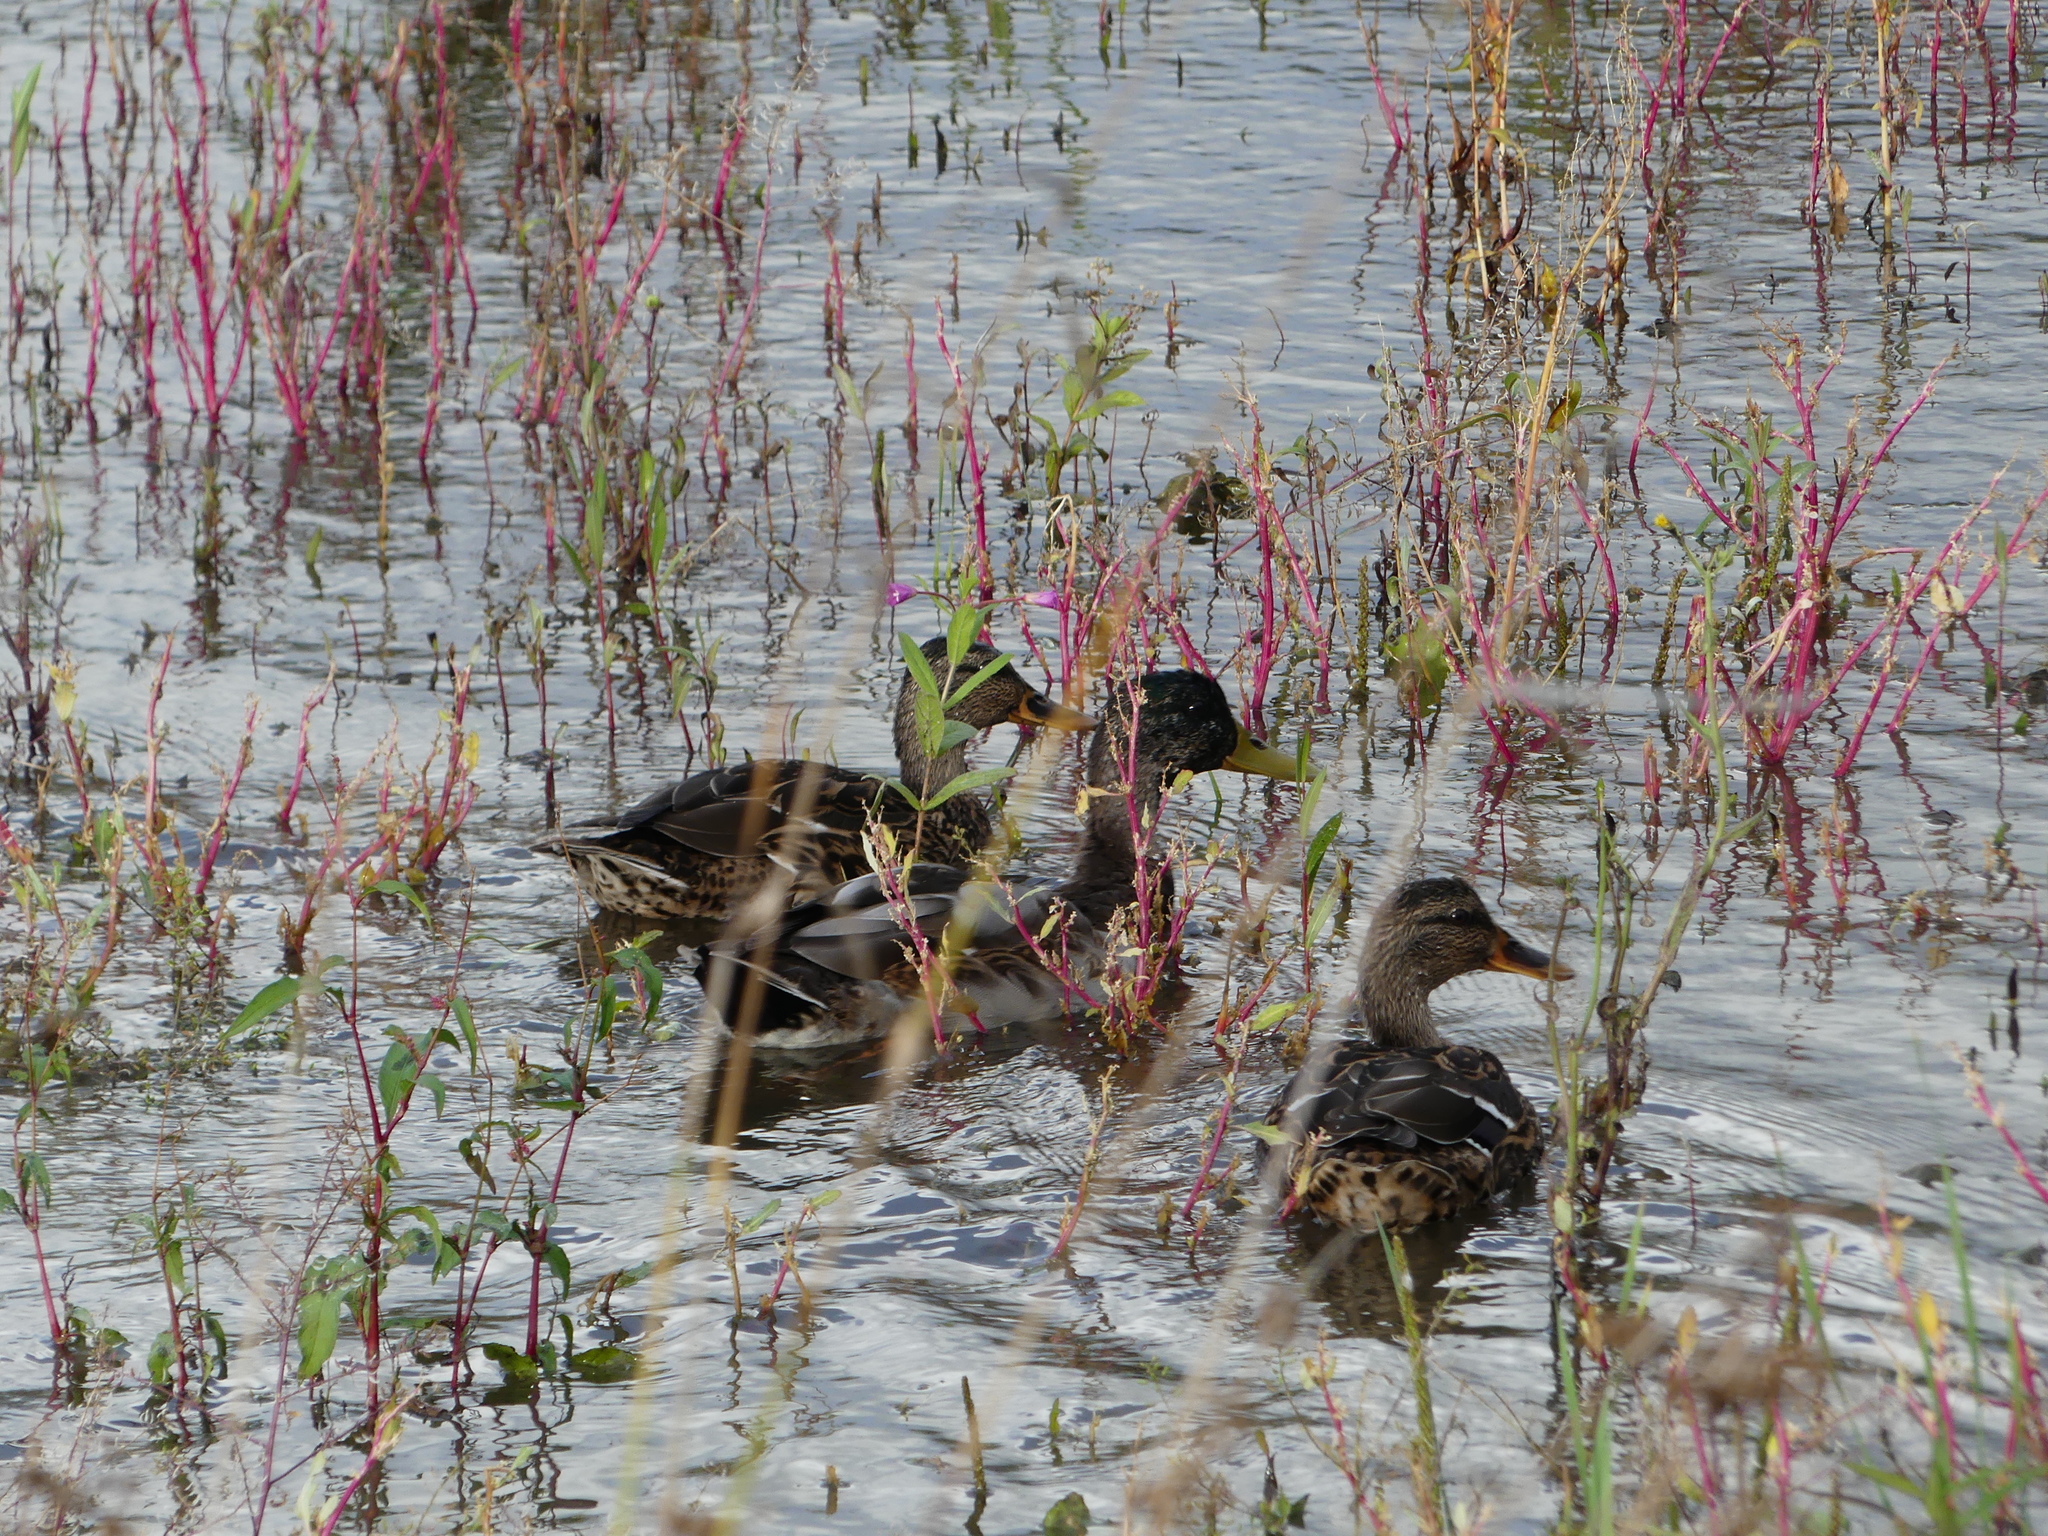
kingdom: Animalia
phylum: Chordata
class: Aves
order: Anseriformes
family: Anatidae
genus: Anas
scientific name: Anas platyrhynchos
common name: Mallard
